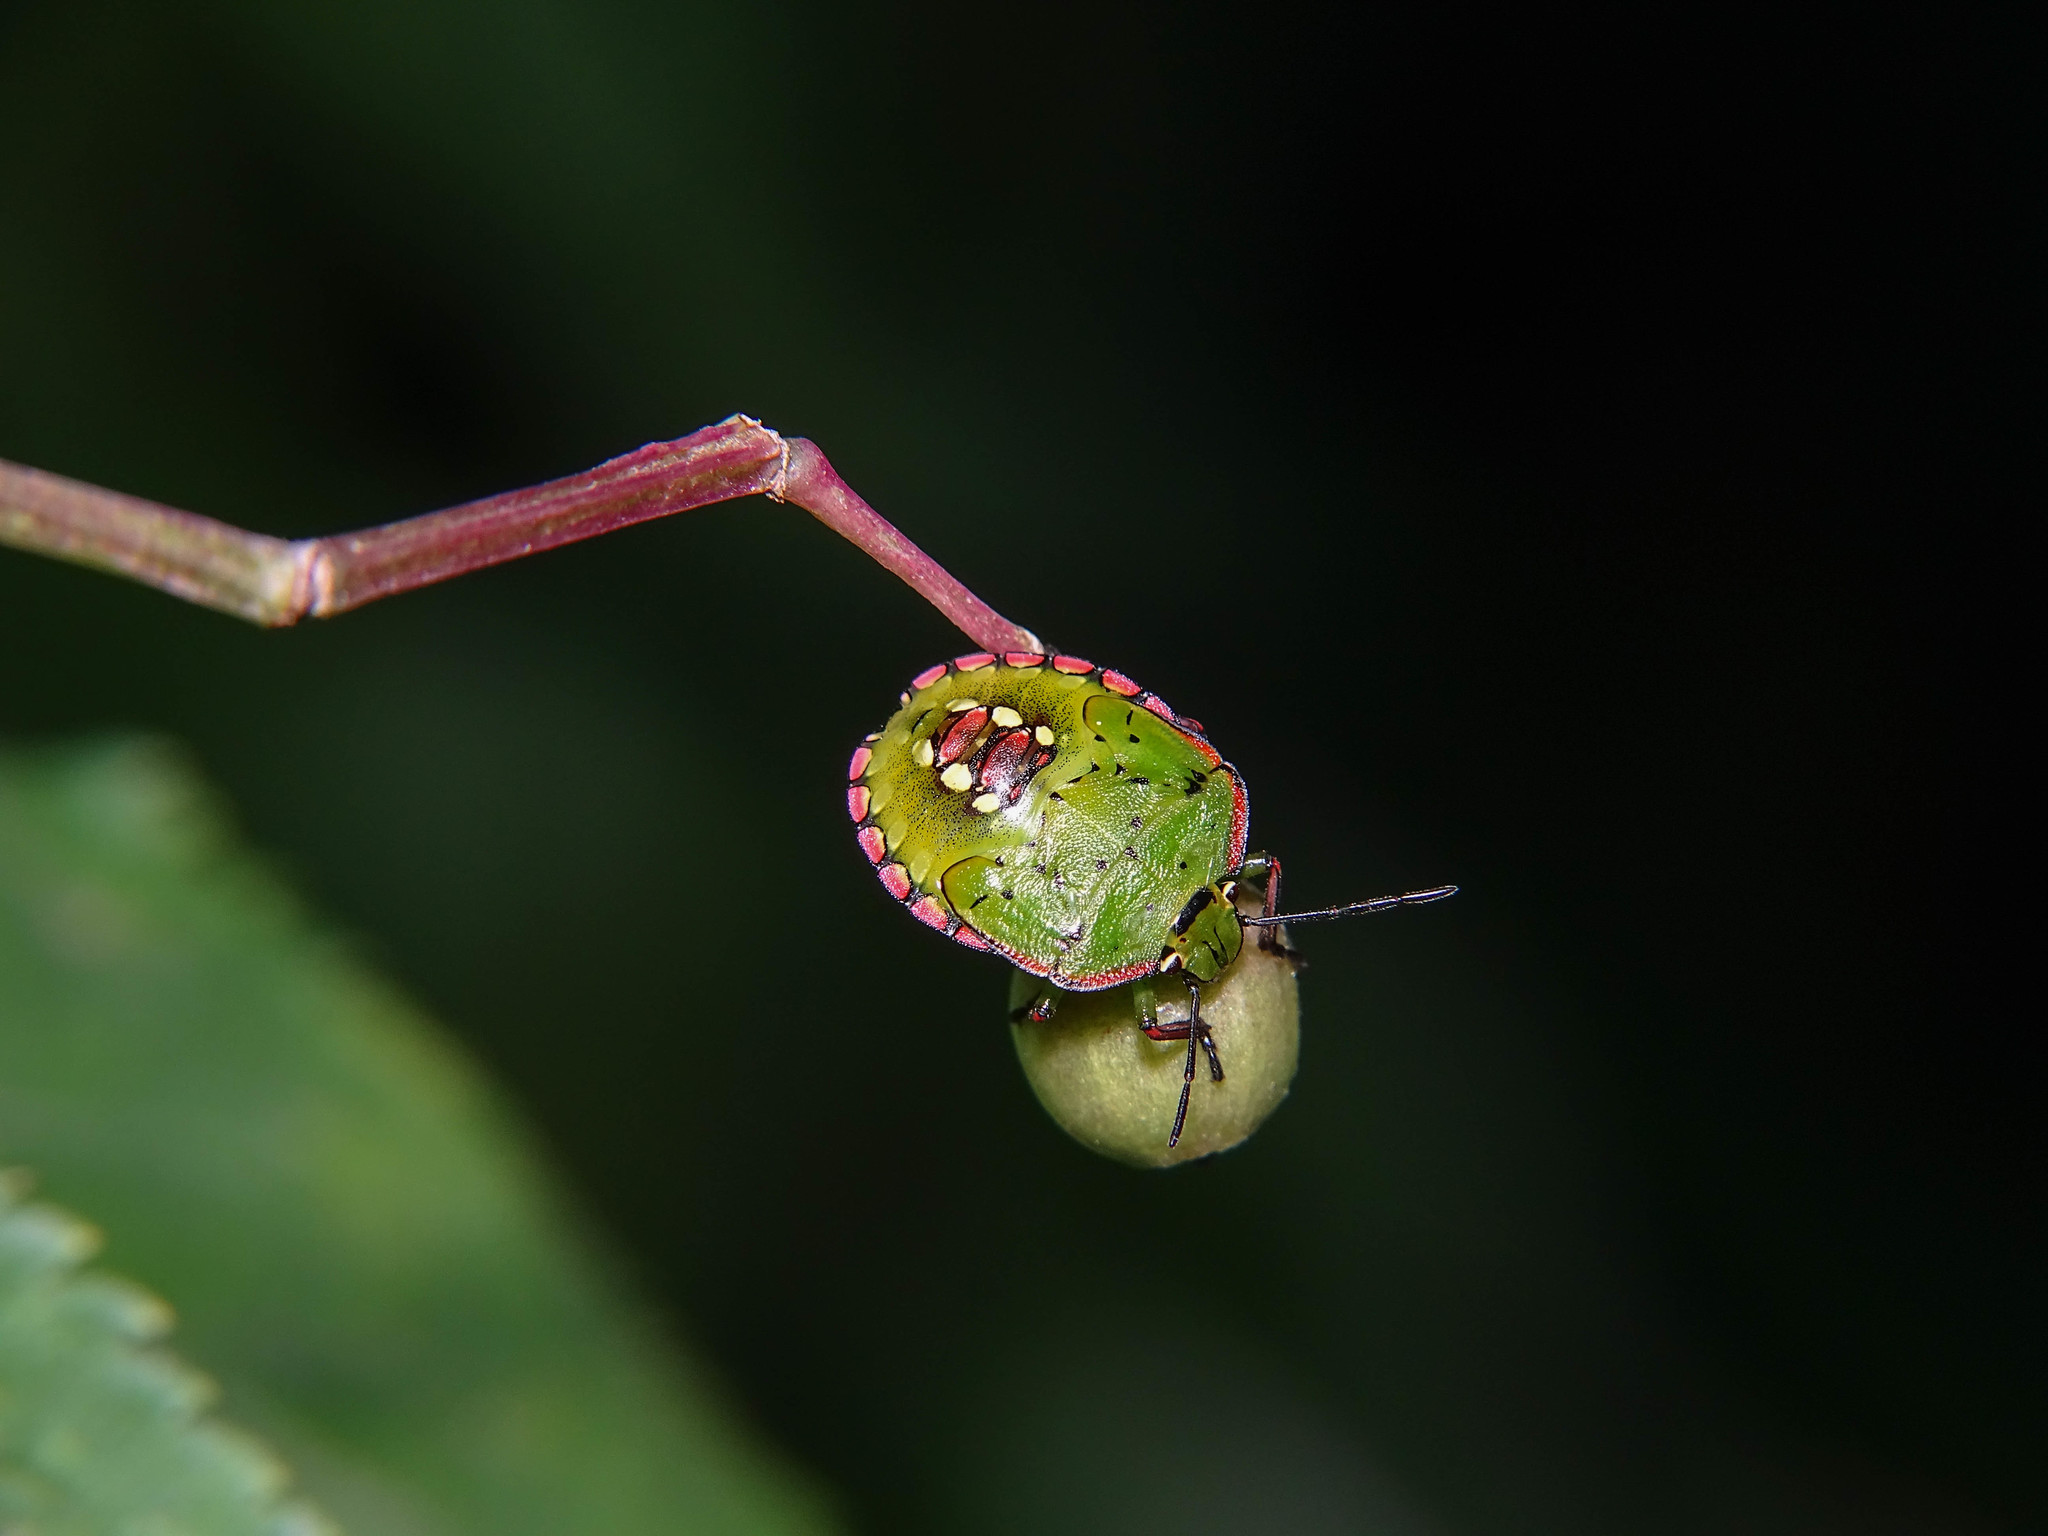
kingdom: Animalia
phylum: Arthropoda
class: Insecta
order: Hemiptera
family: Pentatomidae
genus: Nezara
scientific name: Nezara viridula
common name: Southern green stink bug
